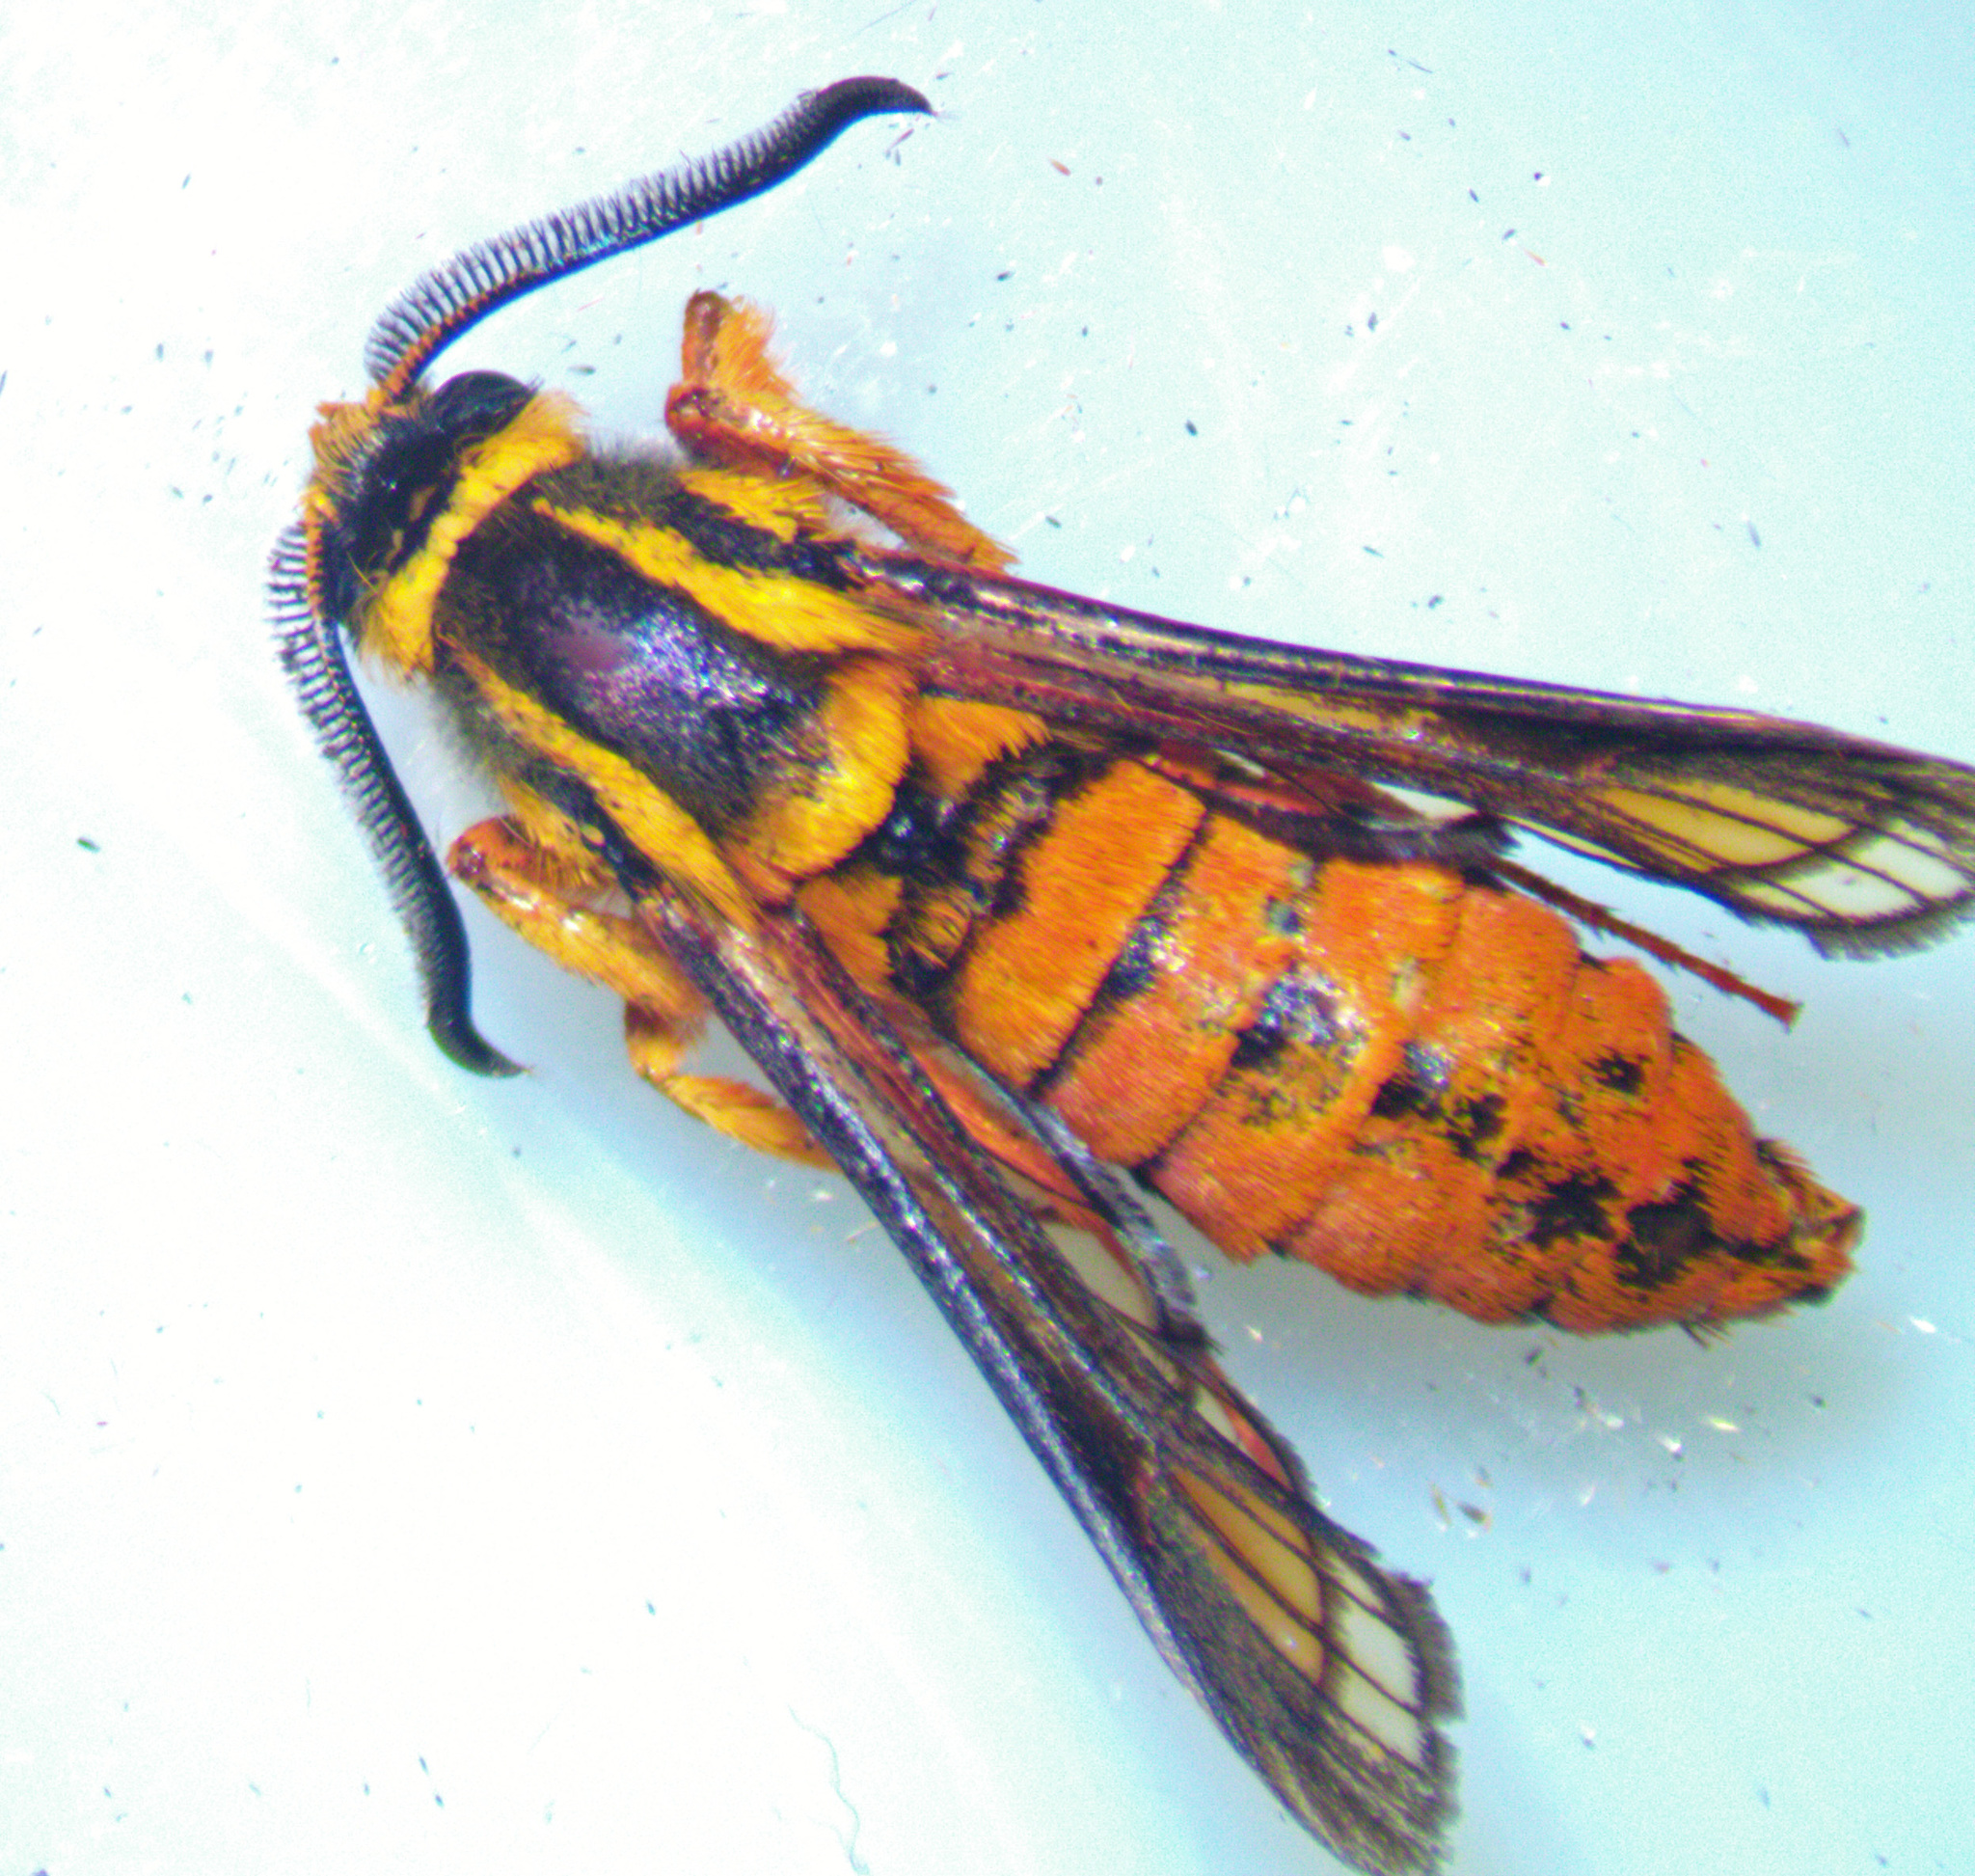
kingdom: Animalia
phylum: Arthropoda
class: Insecta
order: Lepidoptera
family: Sesiidae
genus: Paranthrene
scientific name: Paranthrene simulans
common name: Hornet clearwing moth
